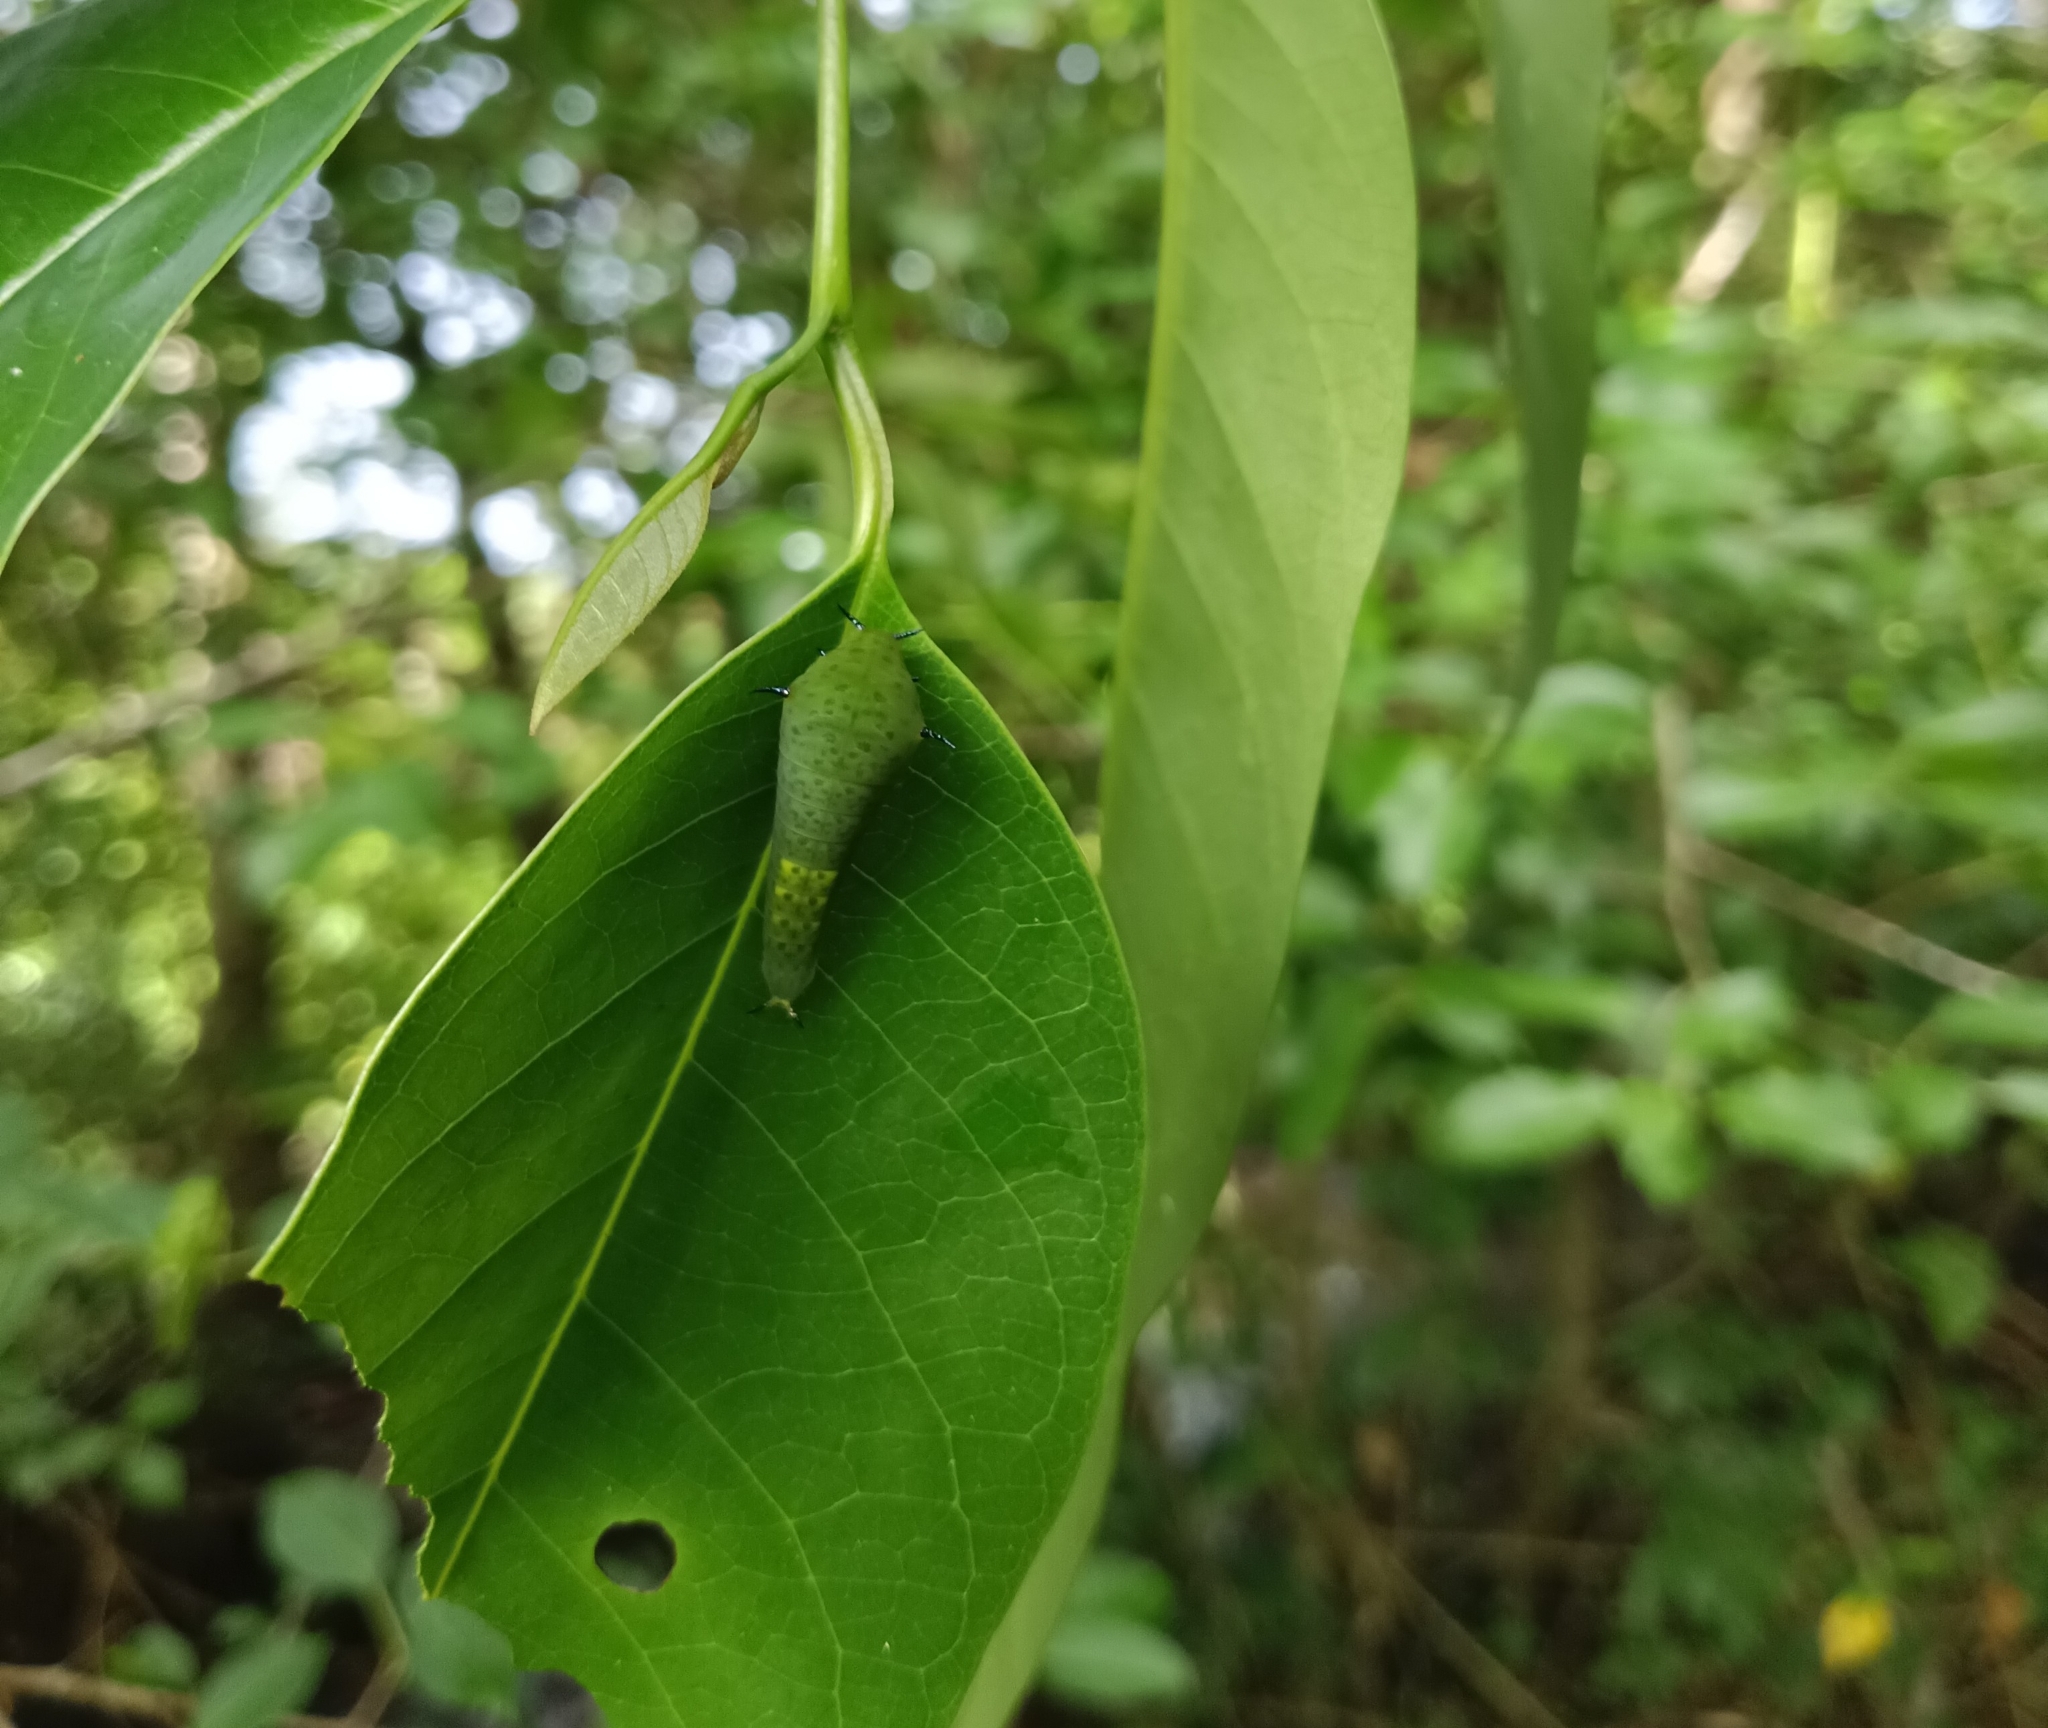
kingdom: Animalia
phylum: Arthropoda
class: Insecta
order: Lepidoptera
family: Papilionidae
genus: Graphium
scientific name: Graphium agamemnon
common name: Tailed jay
